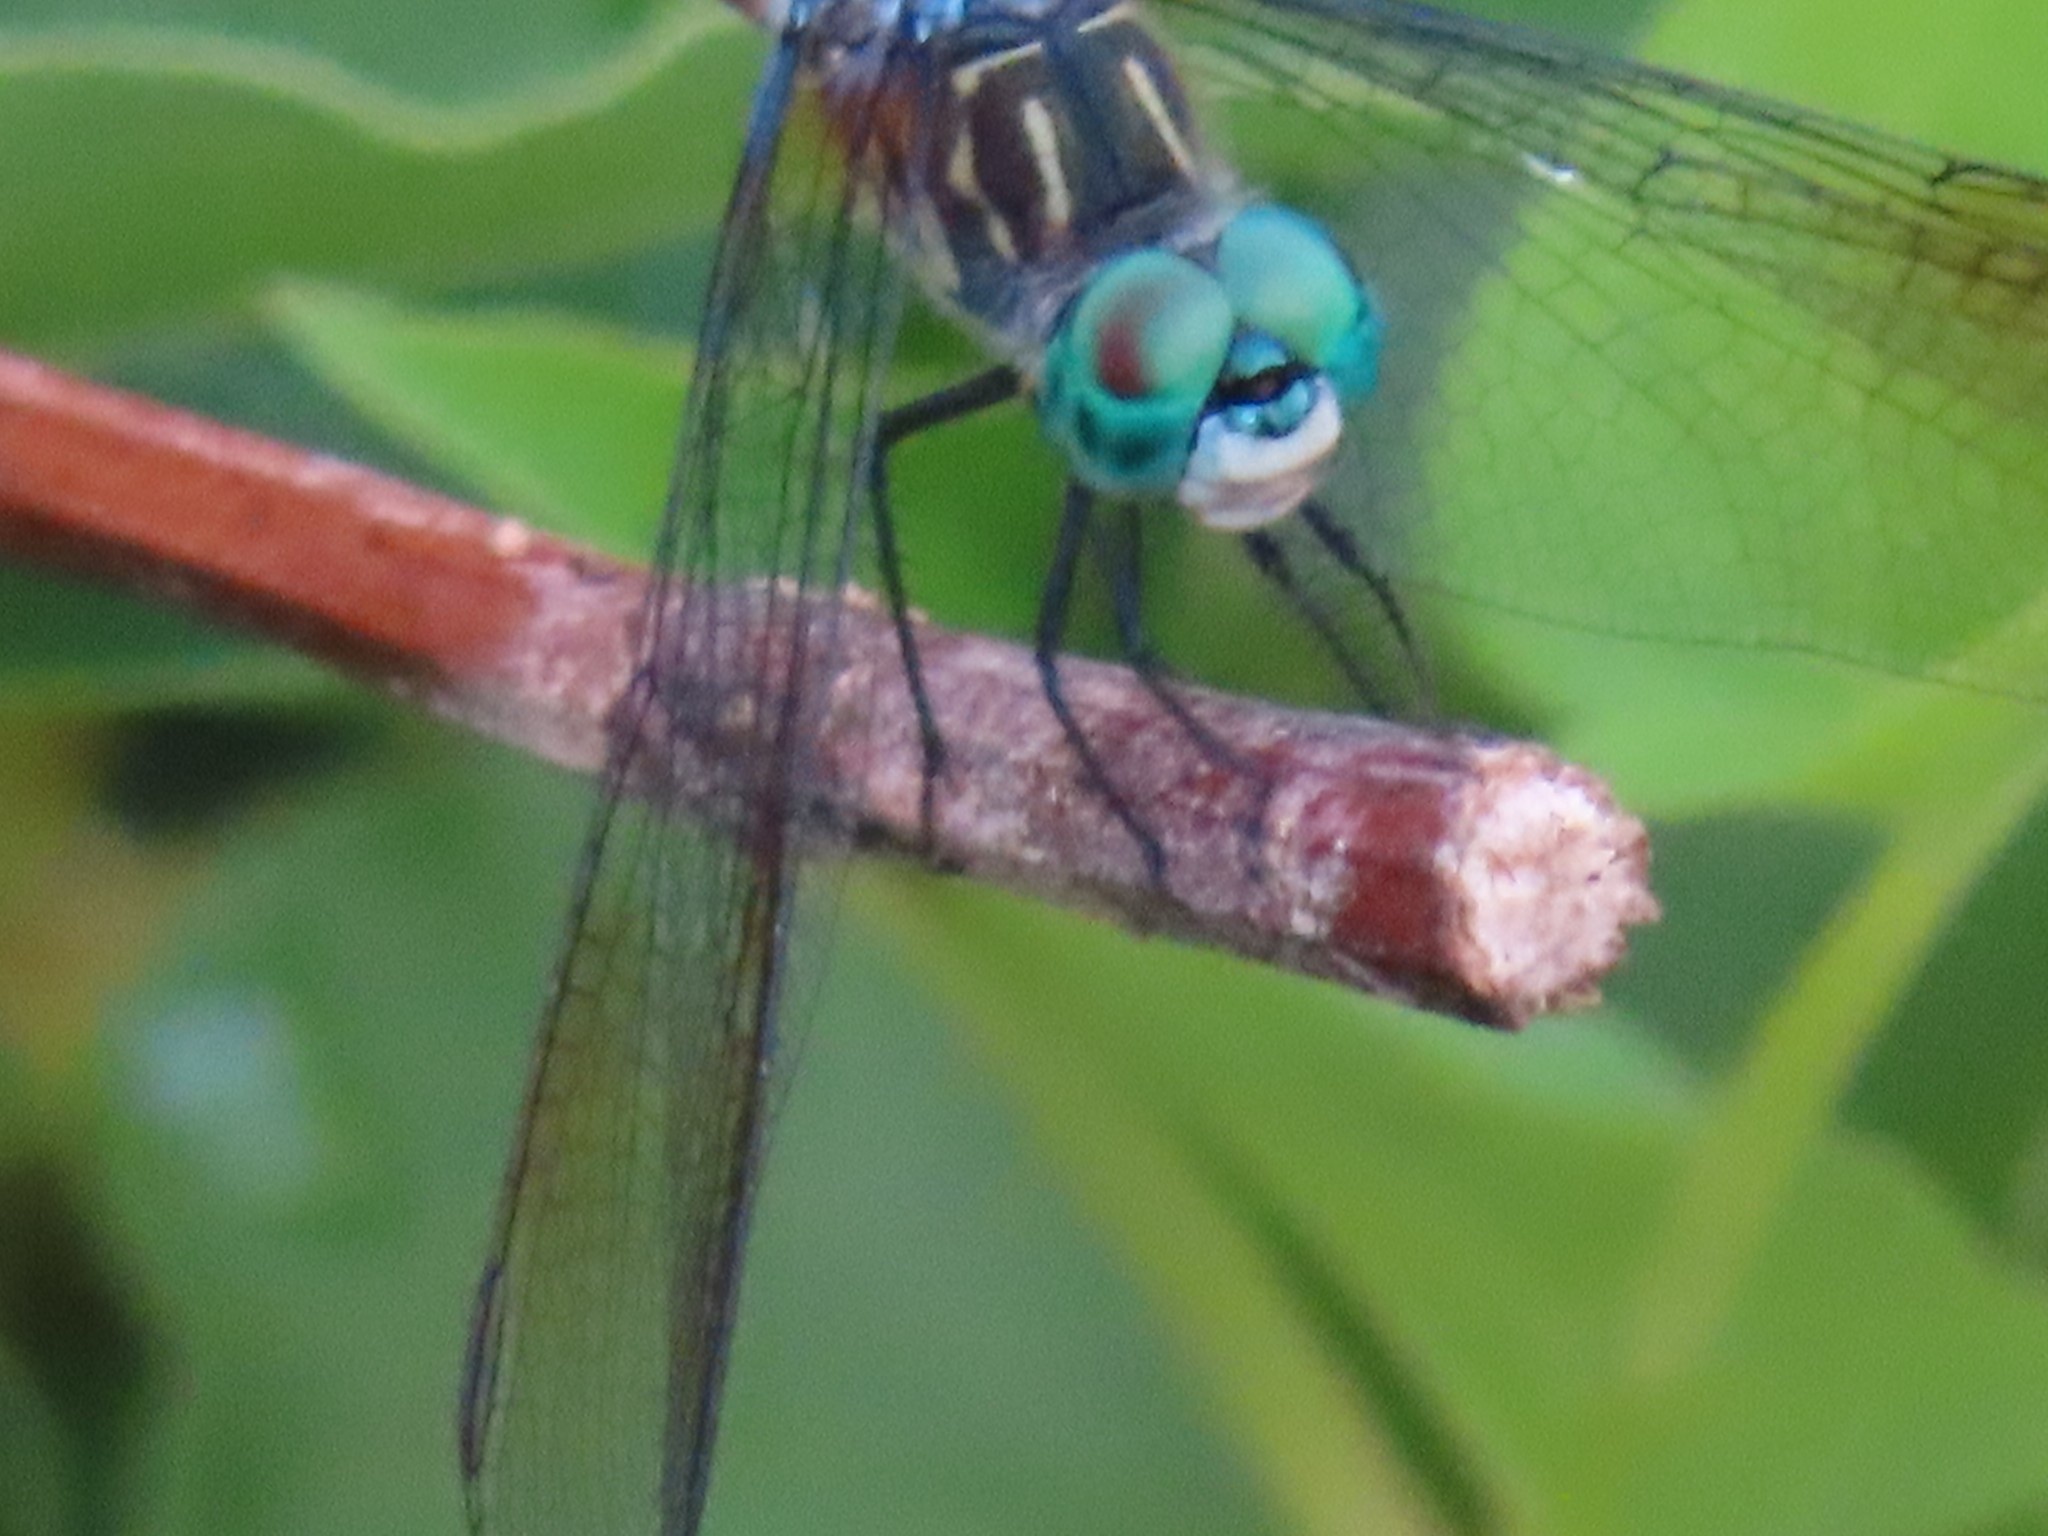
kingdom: Animalia
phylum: Arthropoda
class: Insecta
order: Odonata
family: Libellulidae
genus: Pachydiplax
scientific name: Pachydiplax longipennis
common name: Blue dasher
